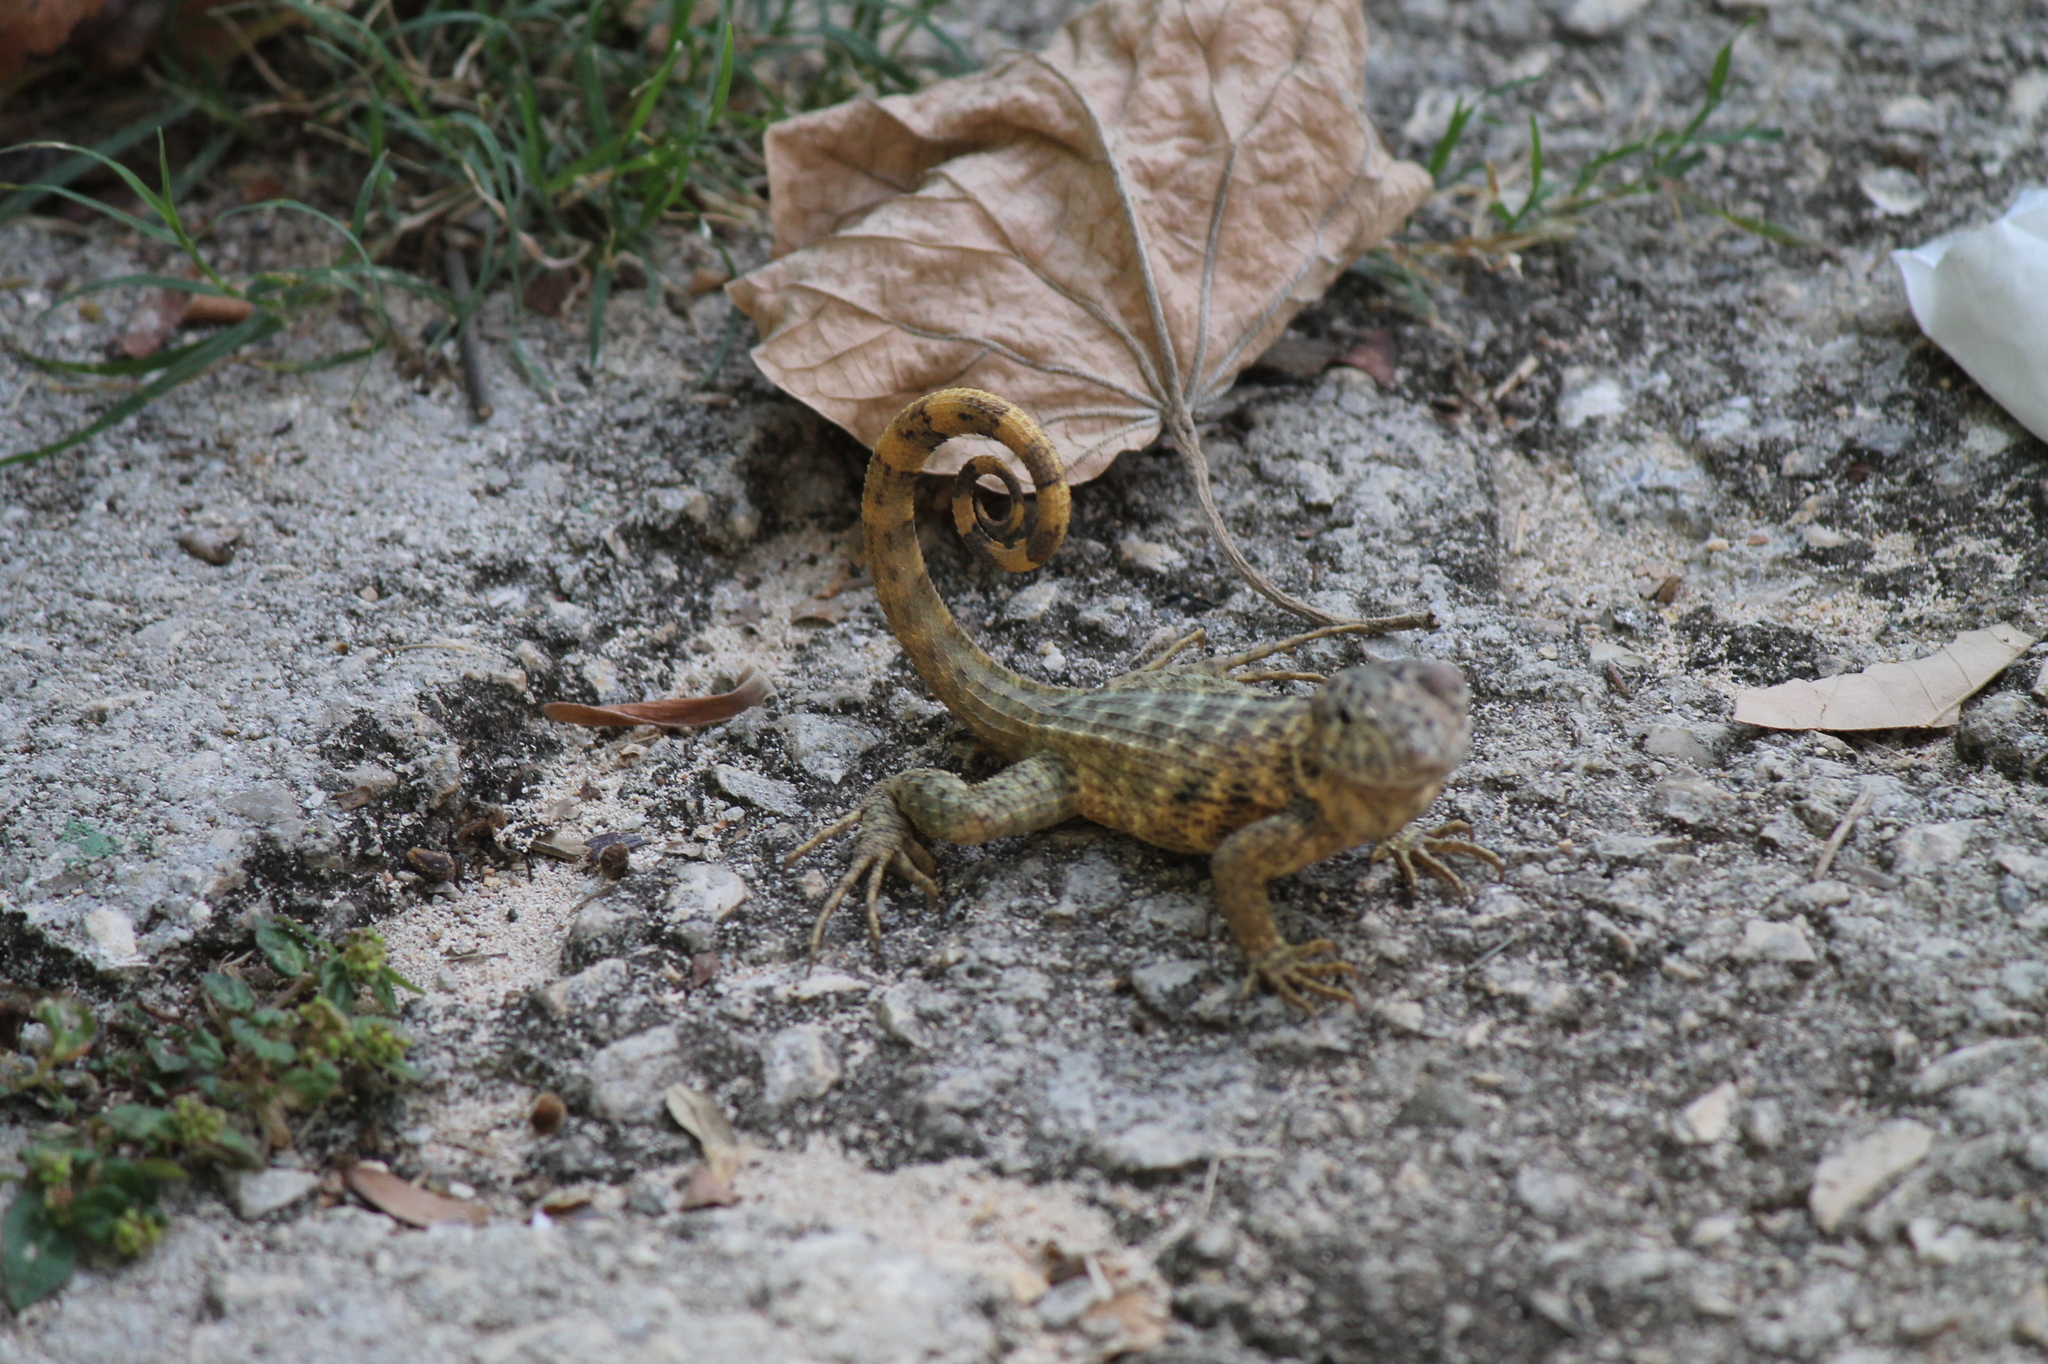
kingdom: Animalia
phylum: Chordata
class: Squamata
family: Leiocephalidae
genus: Leiocephalus
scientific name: Leiocephalus carinatus
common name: Northern curly-tailed lizard
